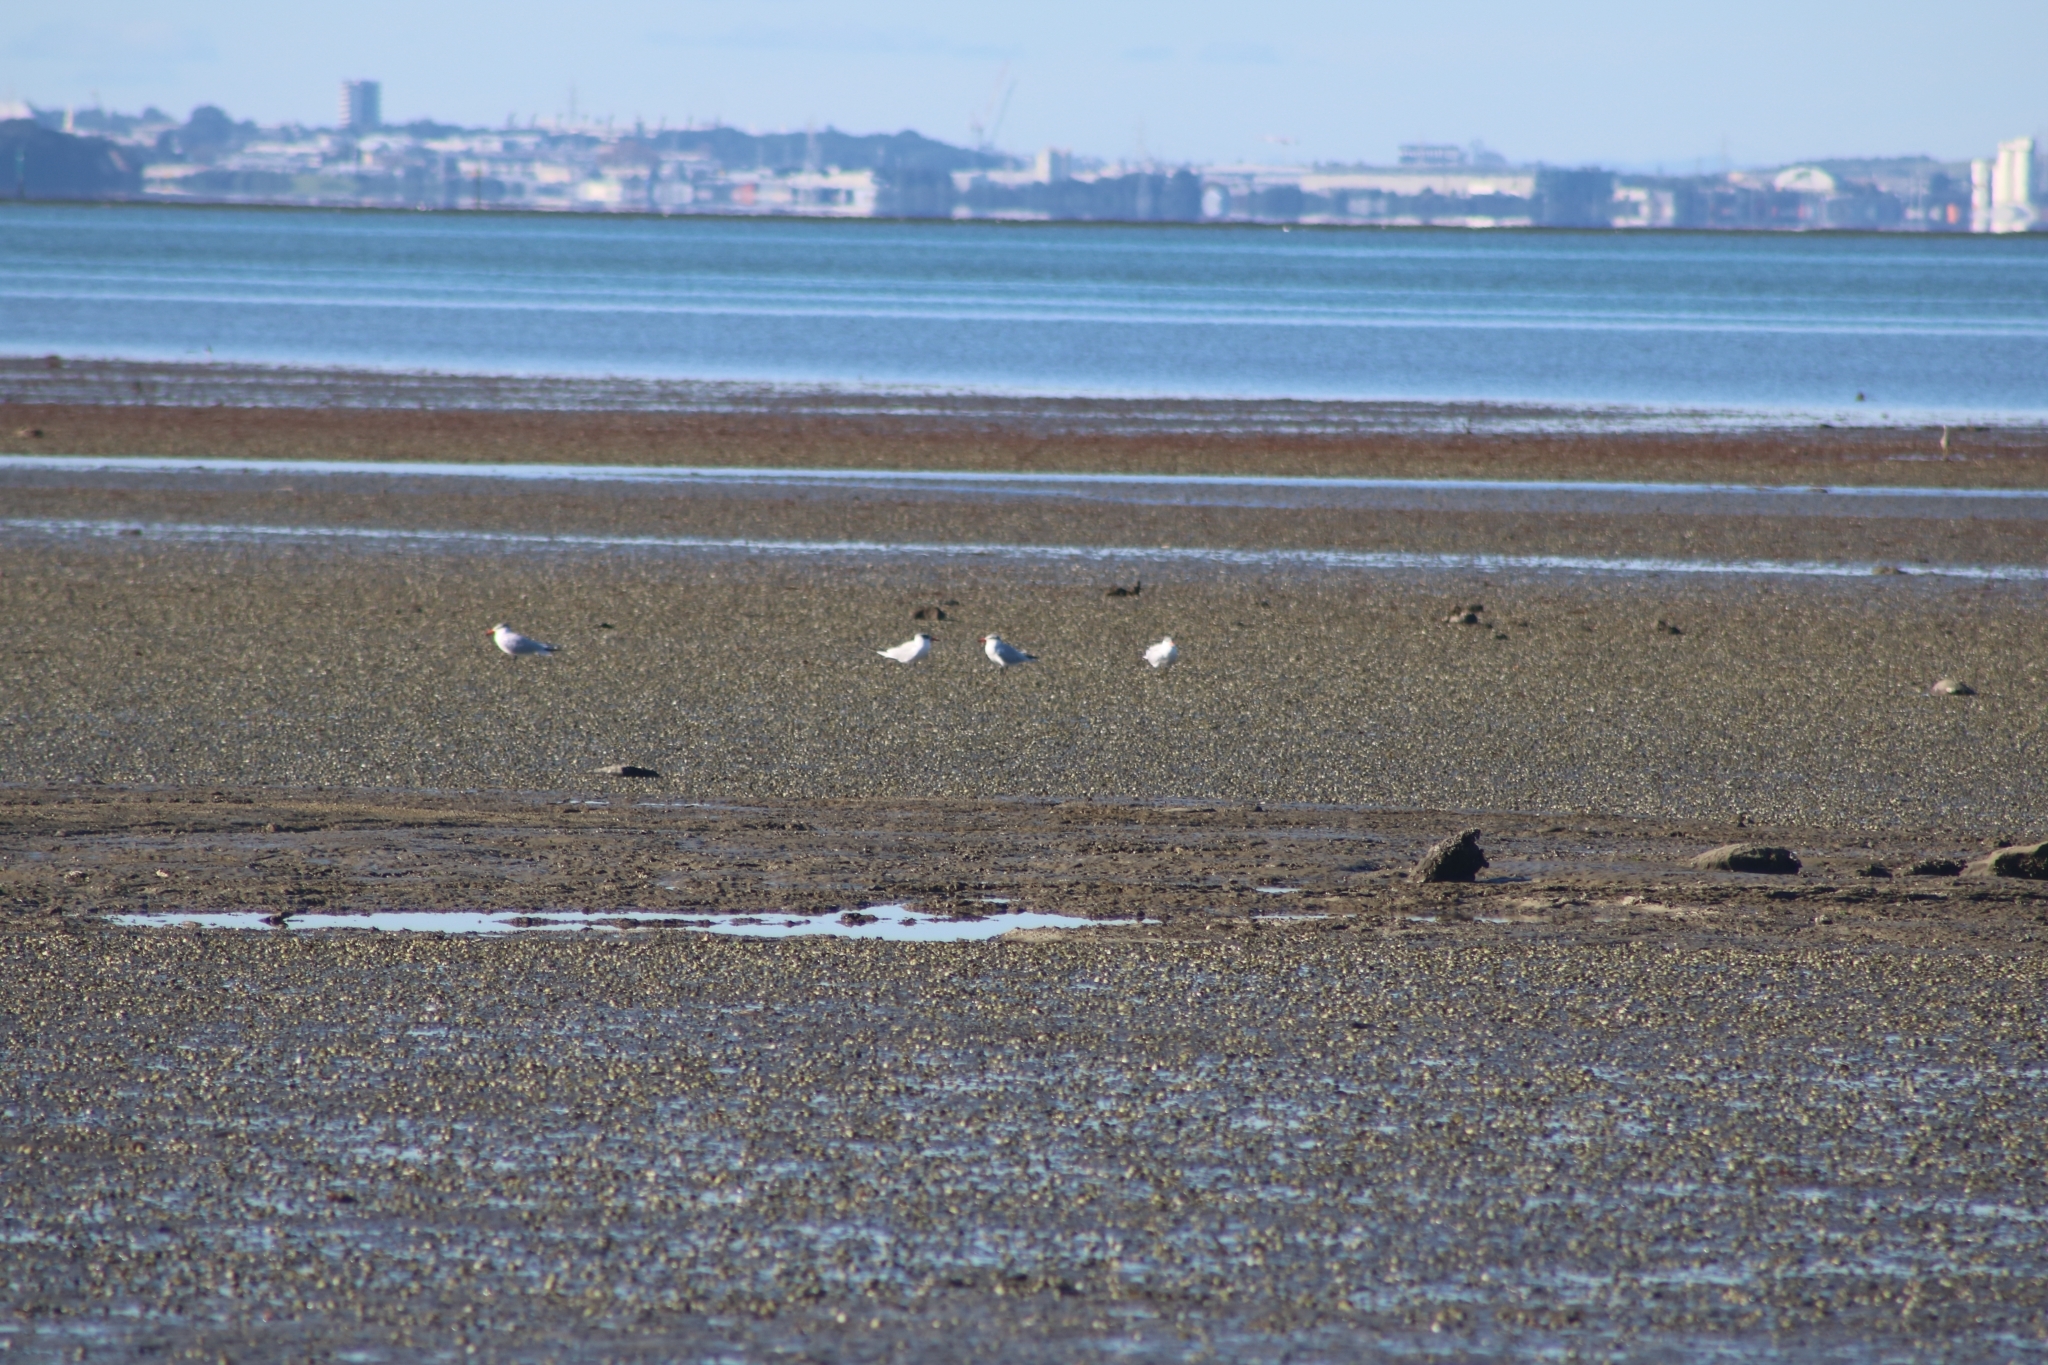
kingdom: Animalia
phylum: Chordata
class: Aves
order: Charadriiformes
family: Laridae
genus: Hydroprogne
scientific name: Hydroprogne caspia
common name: Caspian tern
